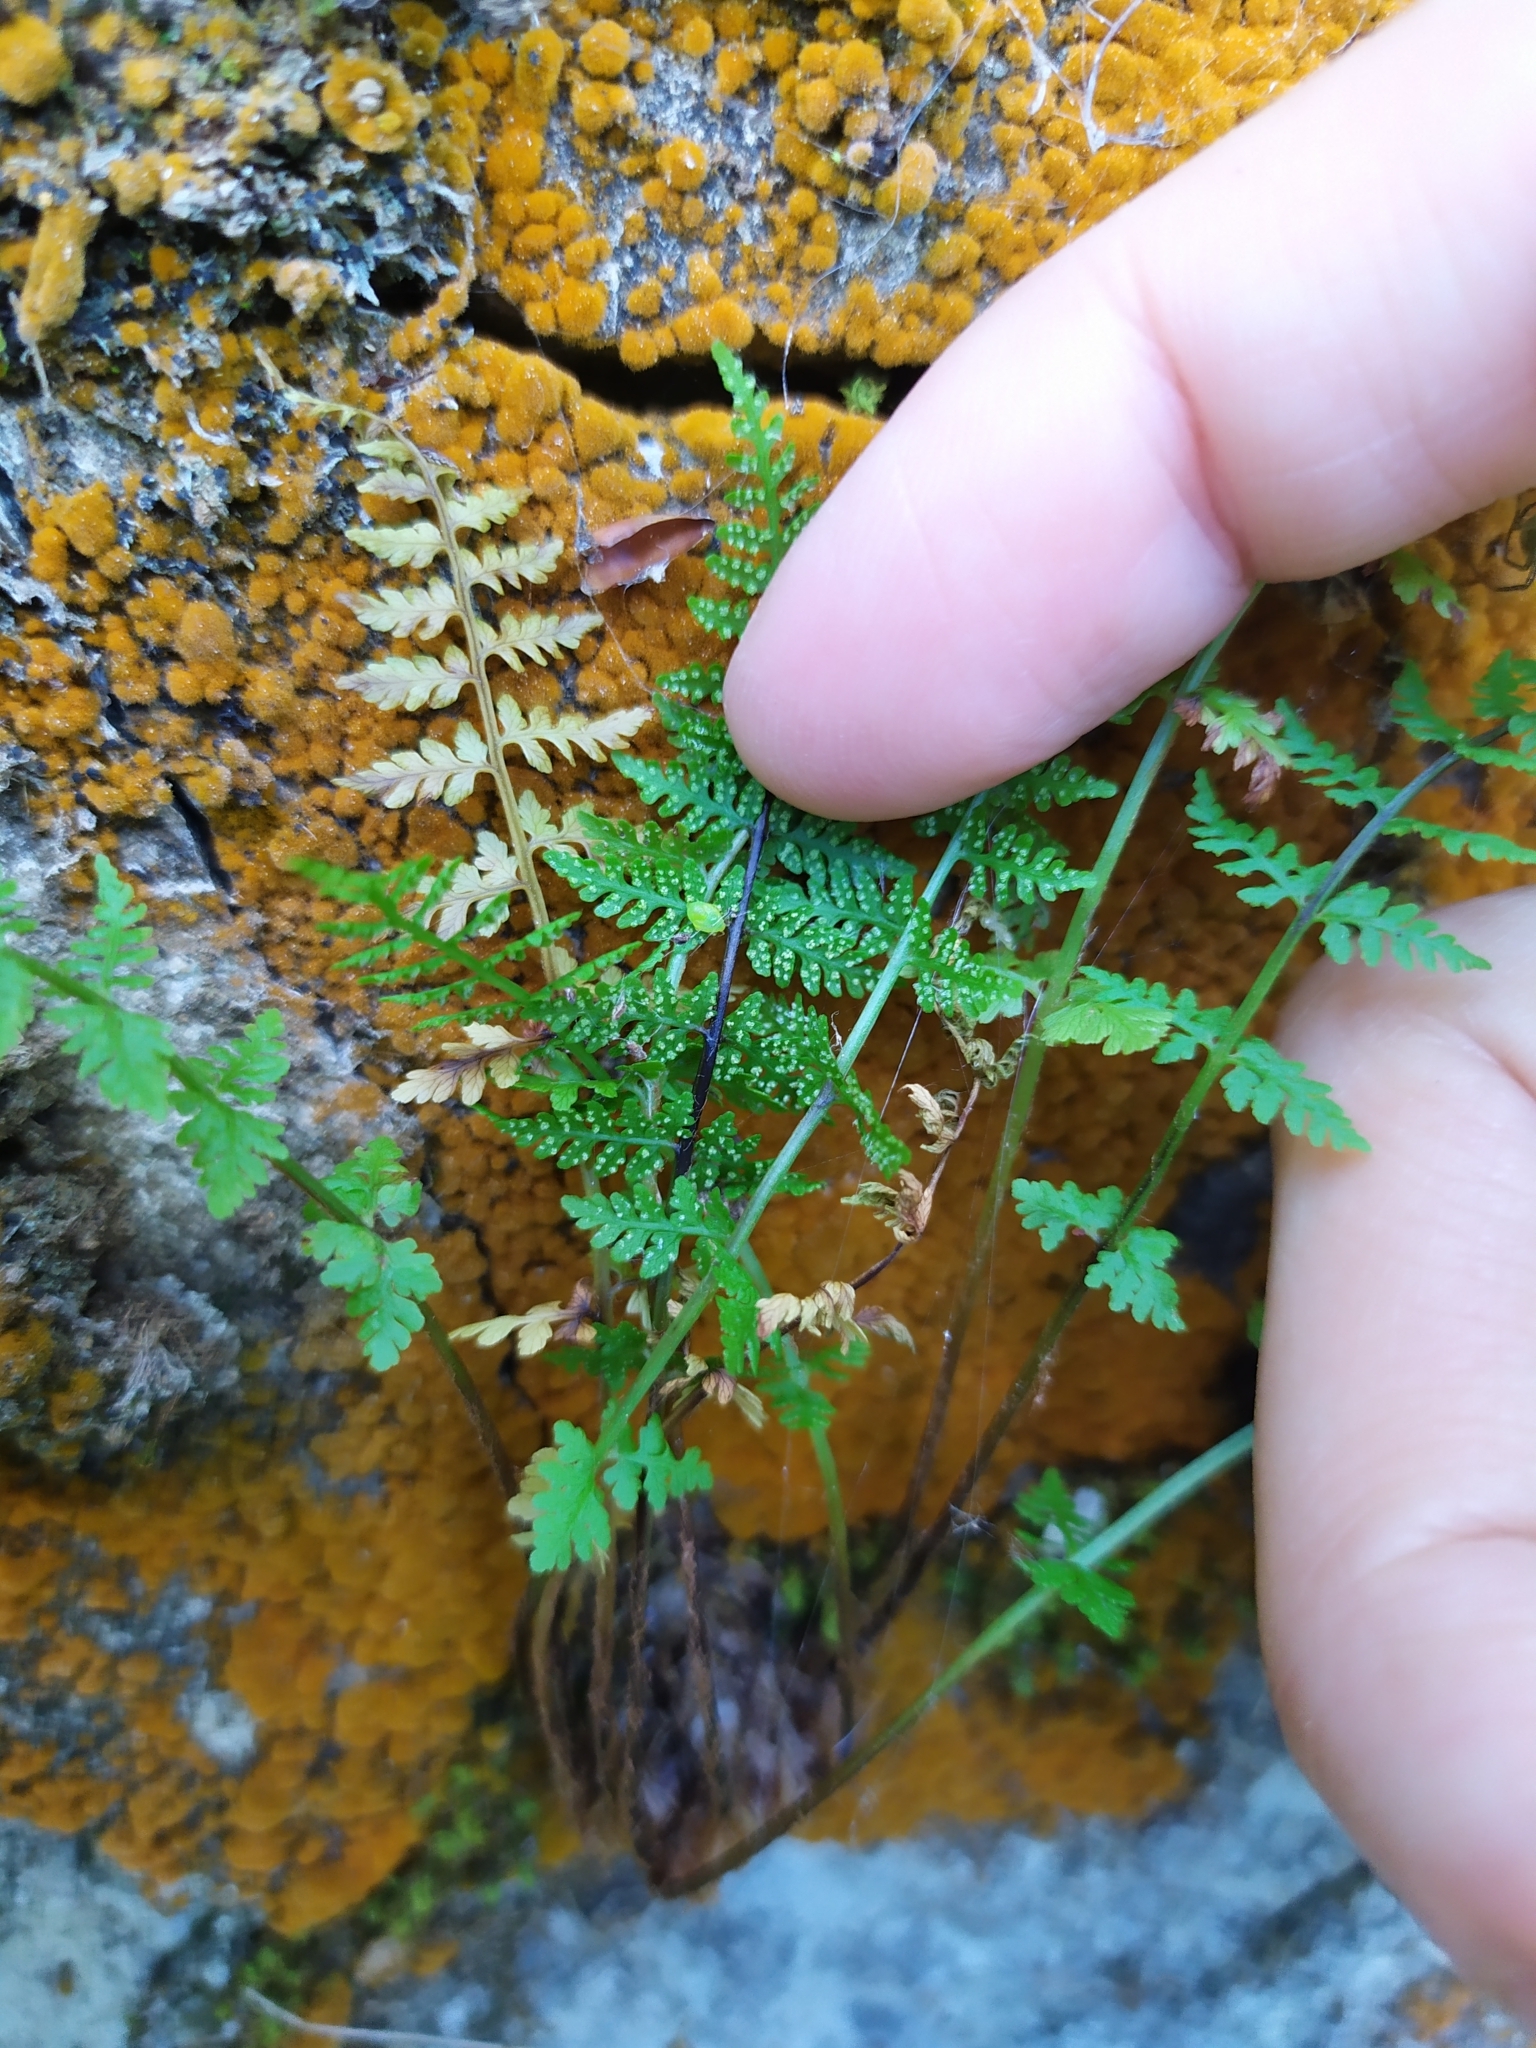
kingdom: Plantae
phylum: Tracheophyta
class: Polypodiopsida
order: Polypodiales
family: Cystopteridaceae
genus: Cystopteris
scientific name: Cystopteris fragilis
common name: Brittle bladder fern
